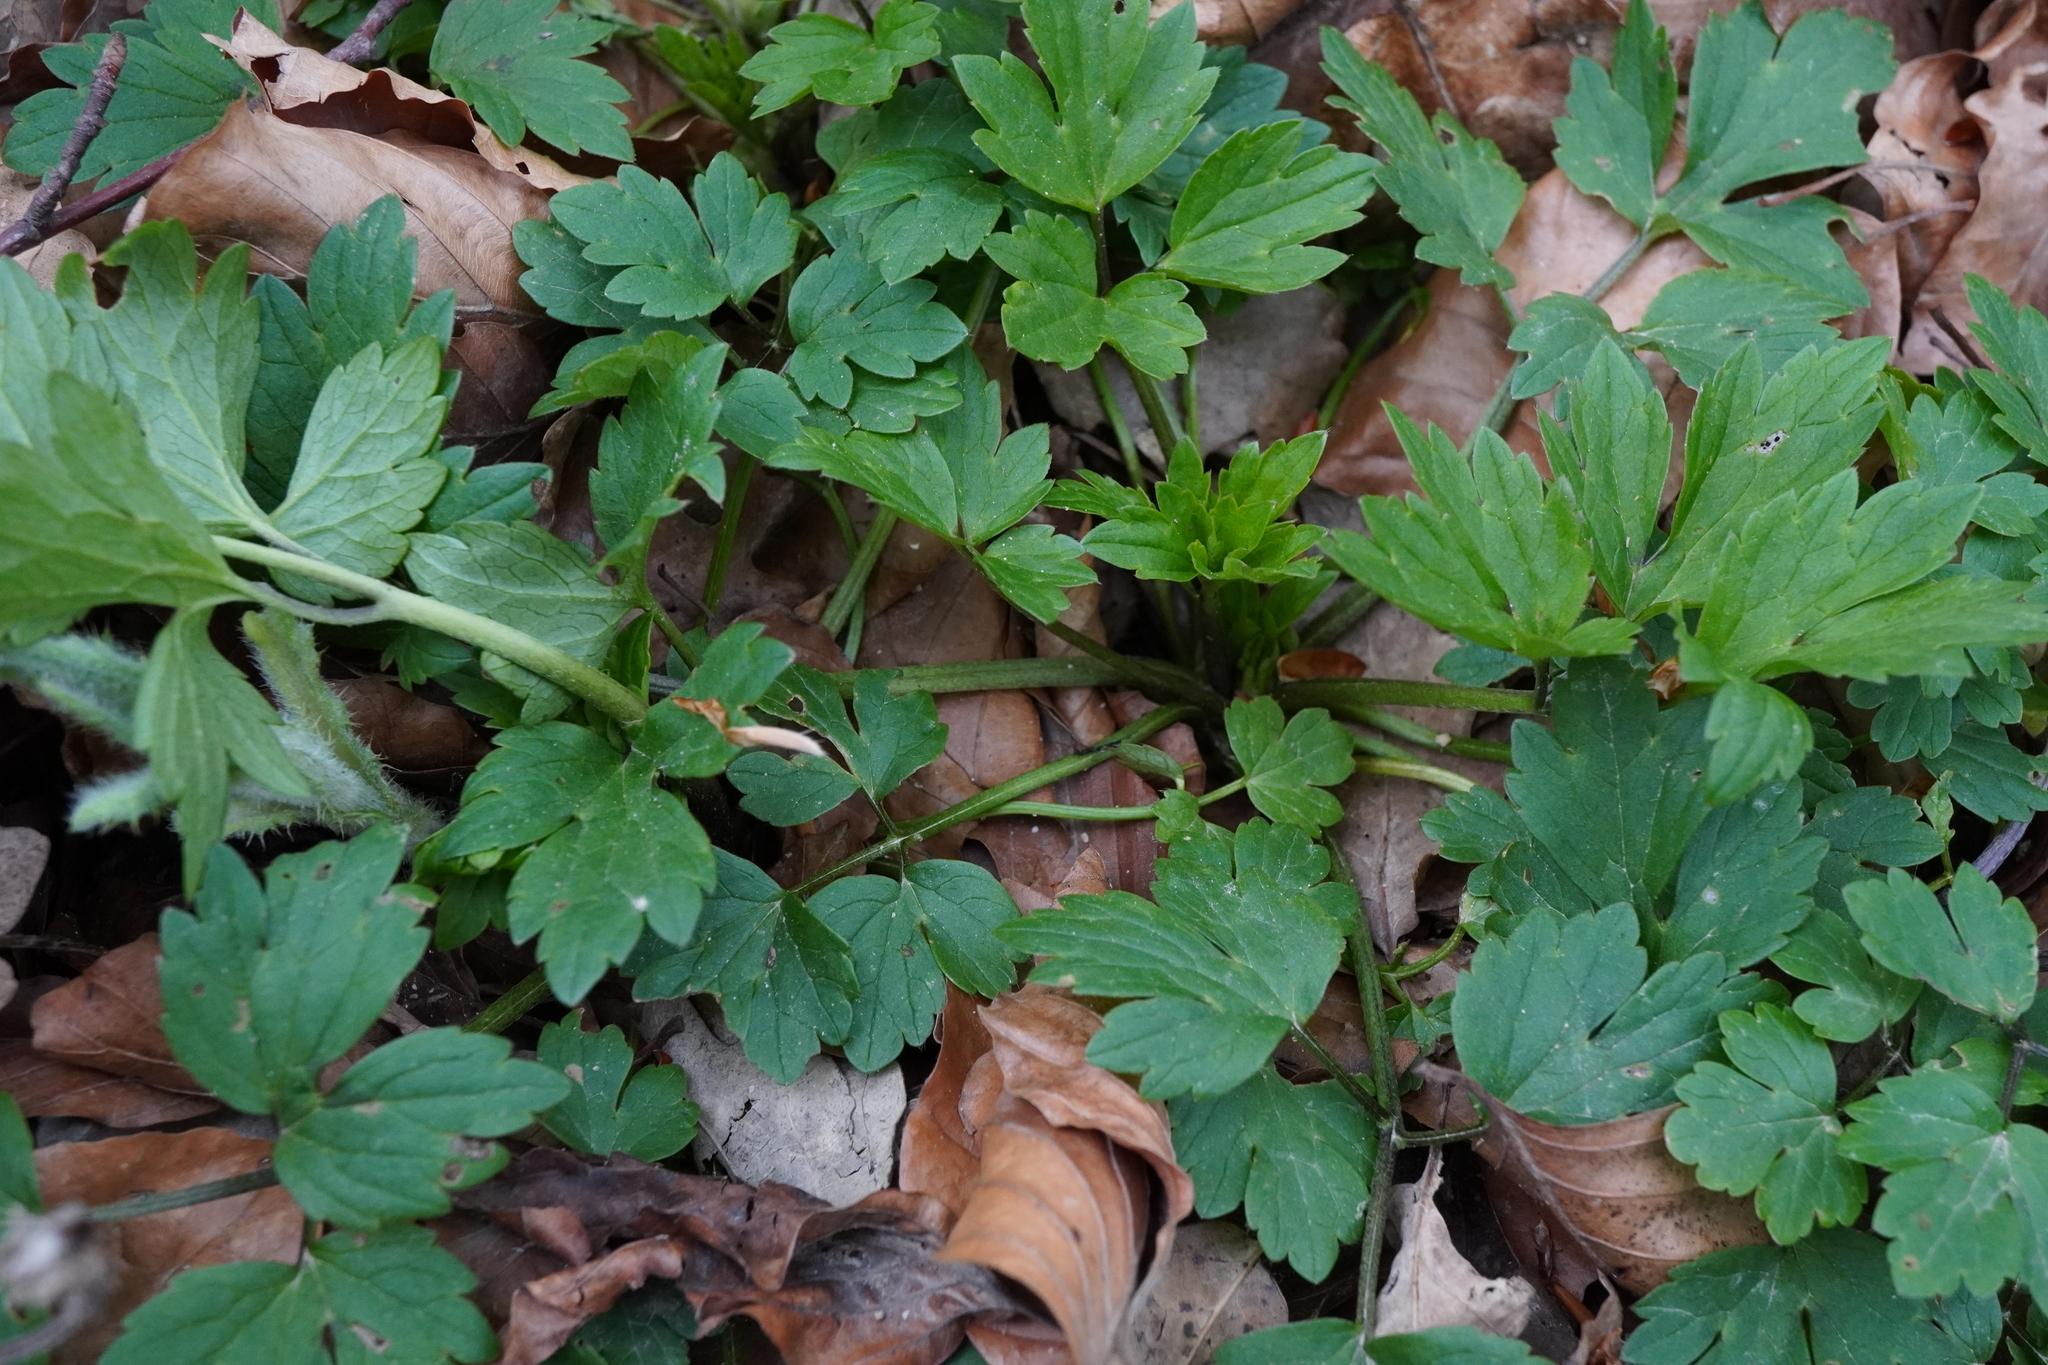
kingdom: Plantae
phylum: Tracheophyta
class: Magnoliopsida
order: Ranunculales
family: Ranunculaceae
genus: Ranunculus
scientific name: Ranunculus repens
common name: Creeping buttercup
